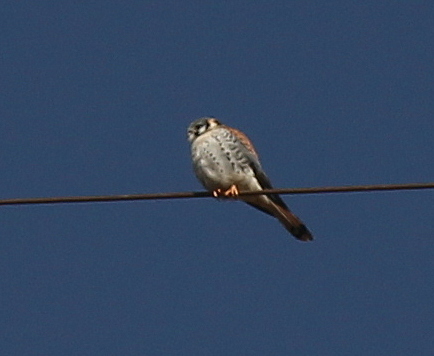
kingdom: Animalia
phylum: Chordata
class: Aves
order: Falconiformes
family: Falconidae
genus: Falco
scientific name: Falco sparverius
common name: American kestrel
